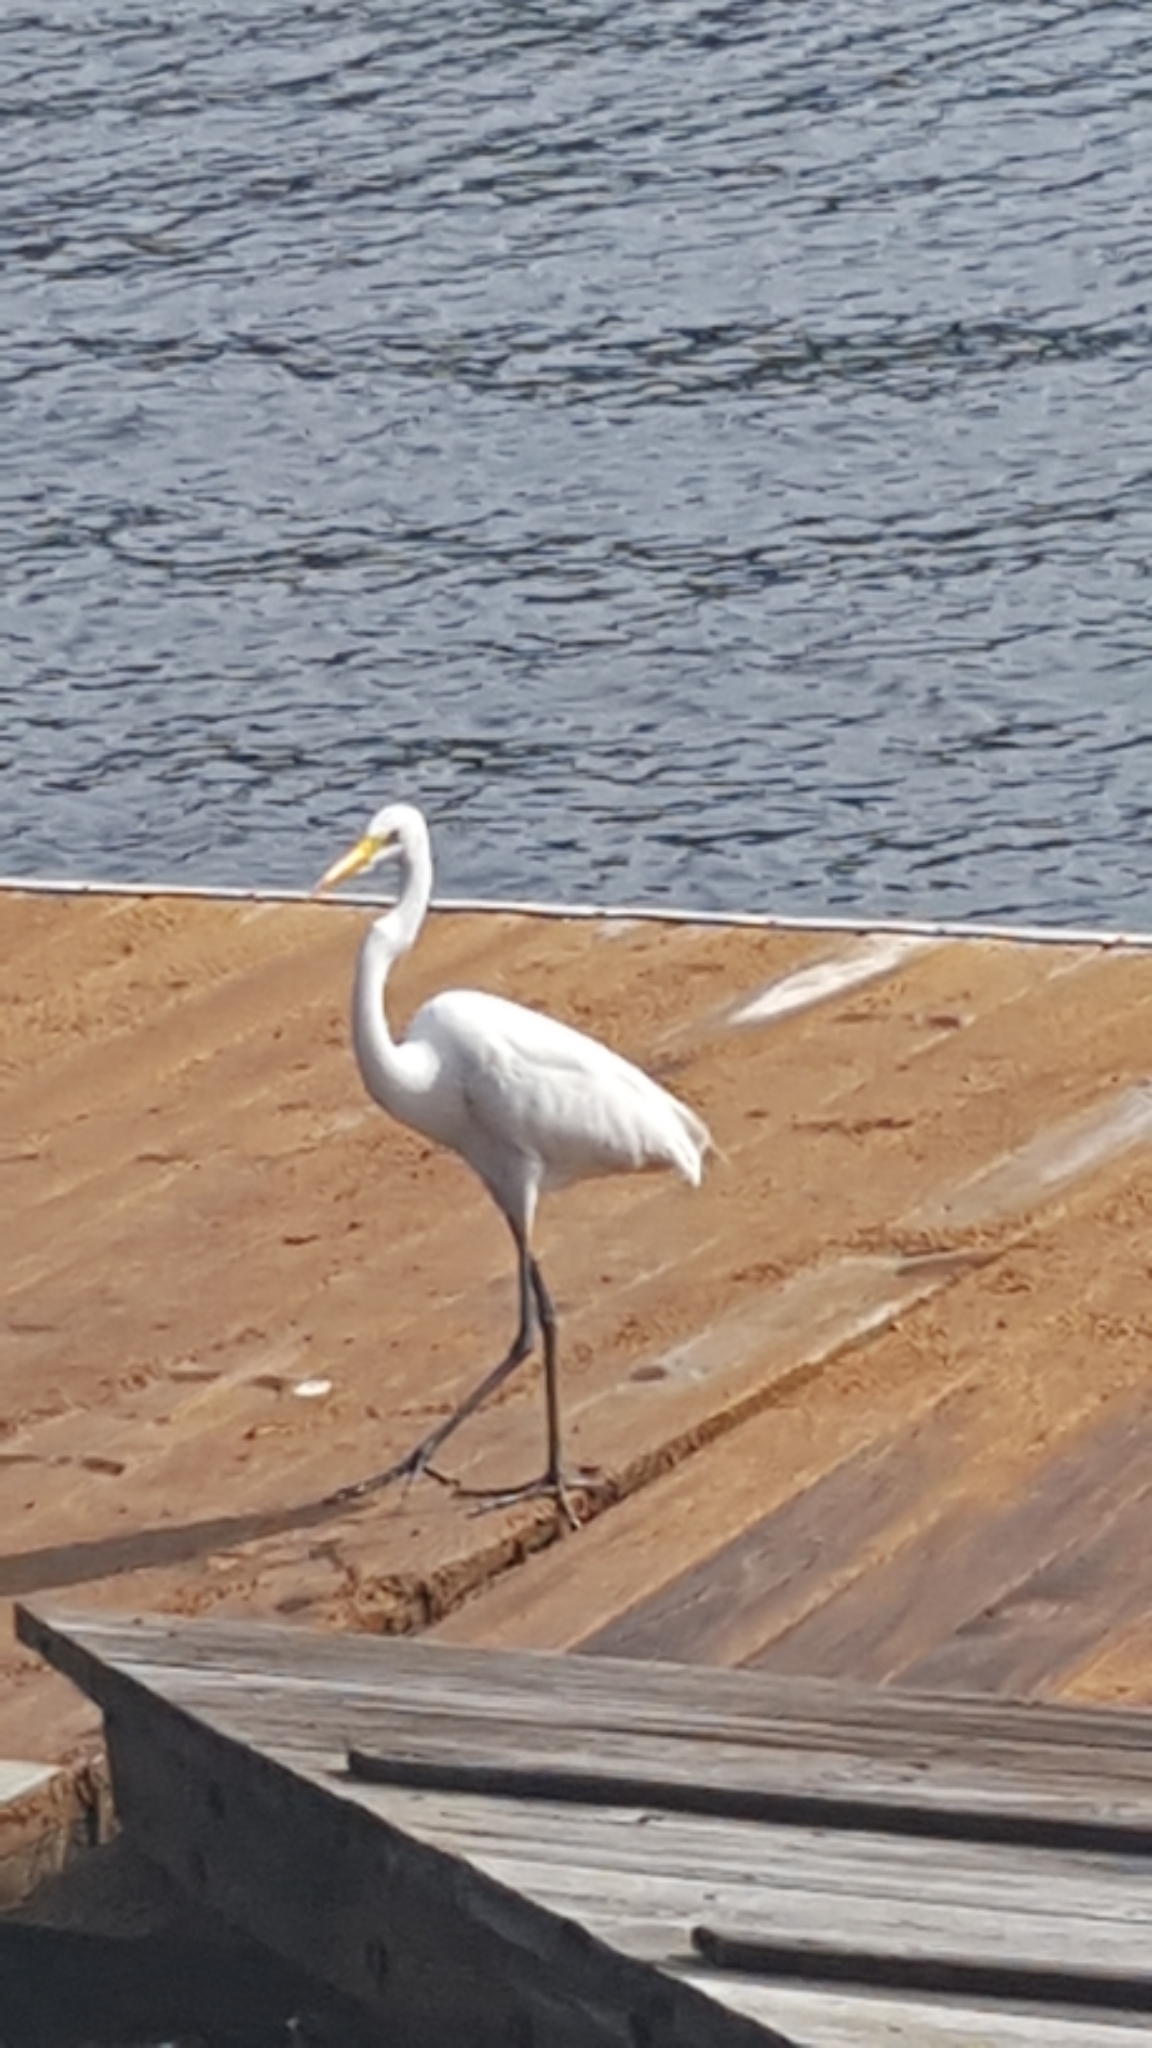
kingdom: Animalia
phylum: Chordata
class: Aves
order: Pelecaniformes
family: Ardeidae
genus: Ardea
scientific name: Ardea alba
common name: Great egret
